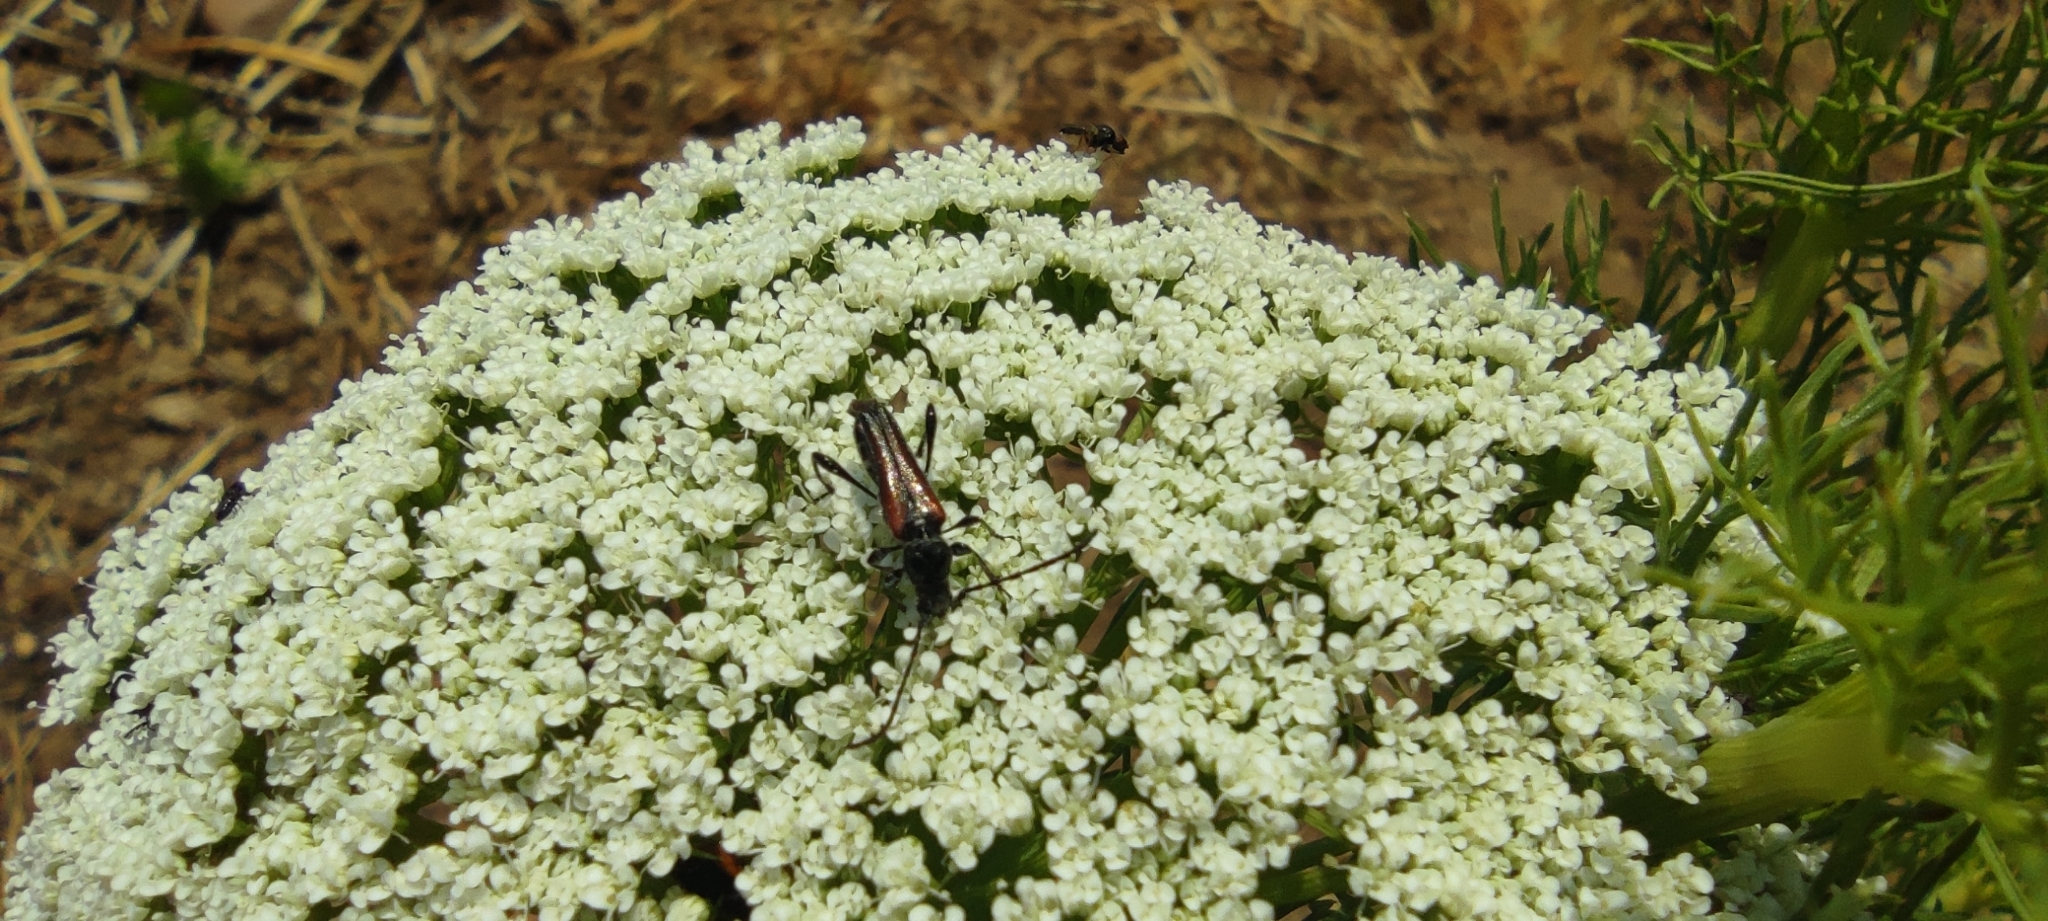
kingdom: Animalia
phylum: Arthropoda
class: Insecta
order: Coleoptera
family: Cerambycidae
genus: Stenopterus
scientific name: Stenopterus ater
